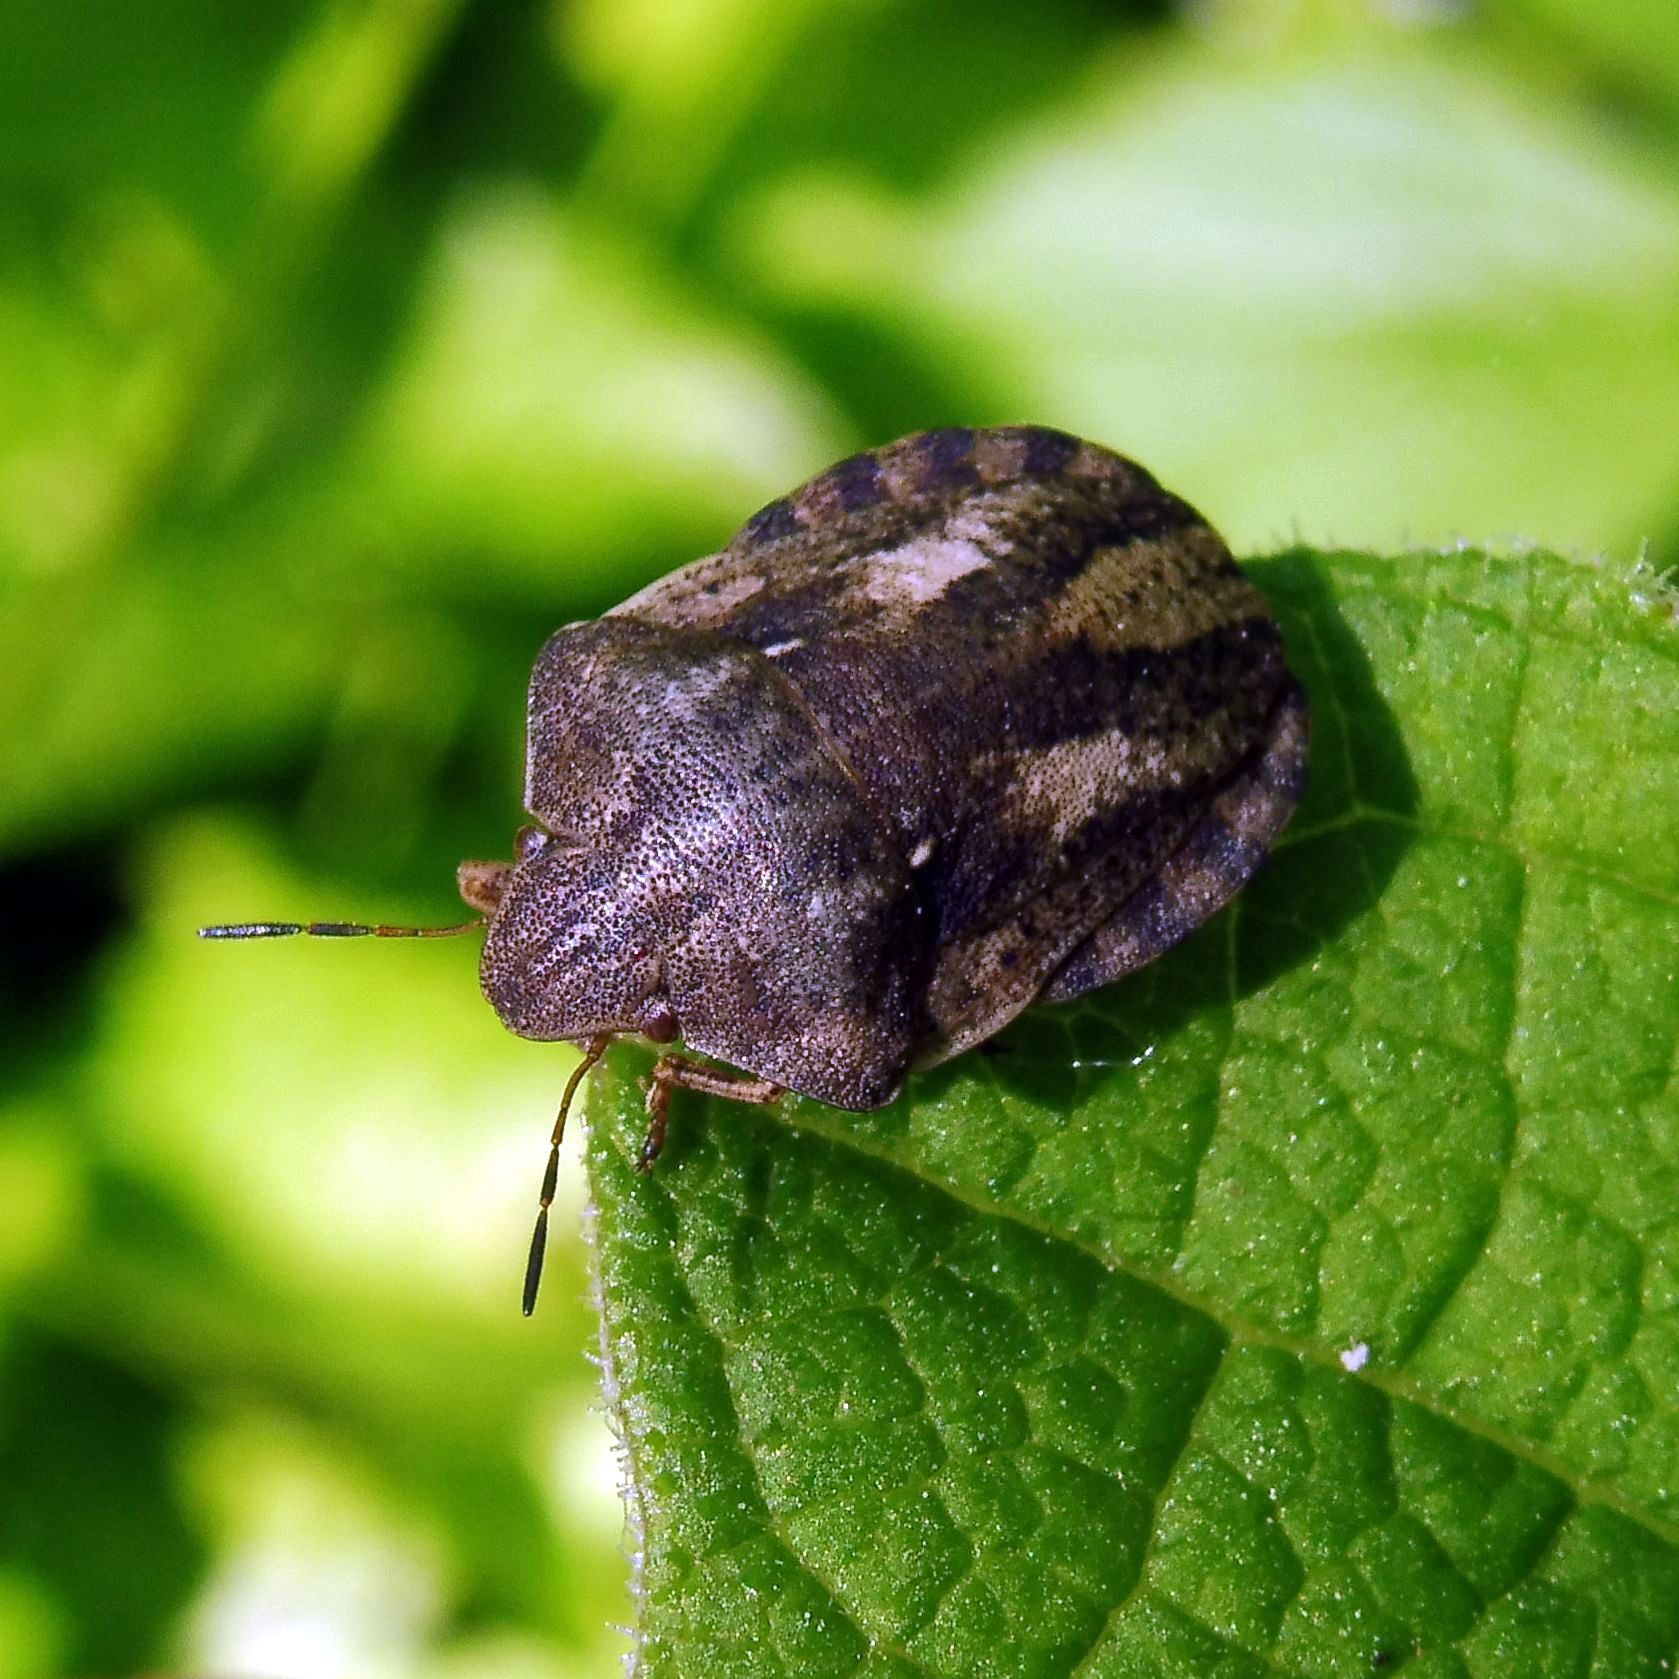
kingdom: Animalia
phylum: Arthropoda
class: Insecta
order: Hemiptera
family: Scutelleridae
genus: Eurygaster
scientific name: Eurygaster testudinaria
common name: Tortoise bug
